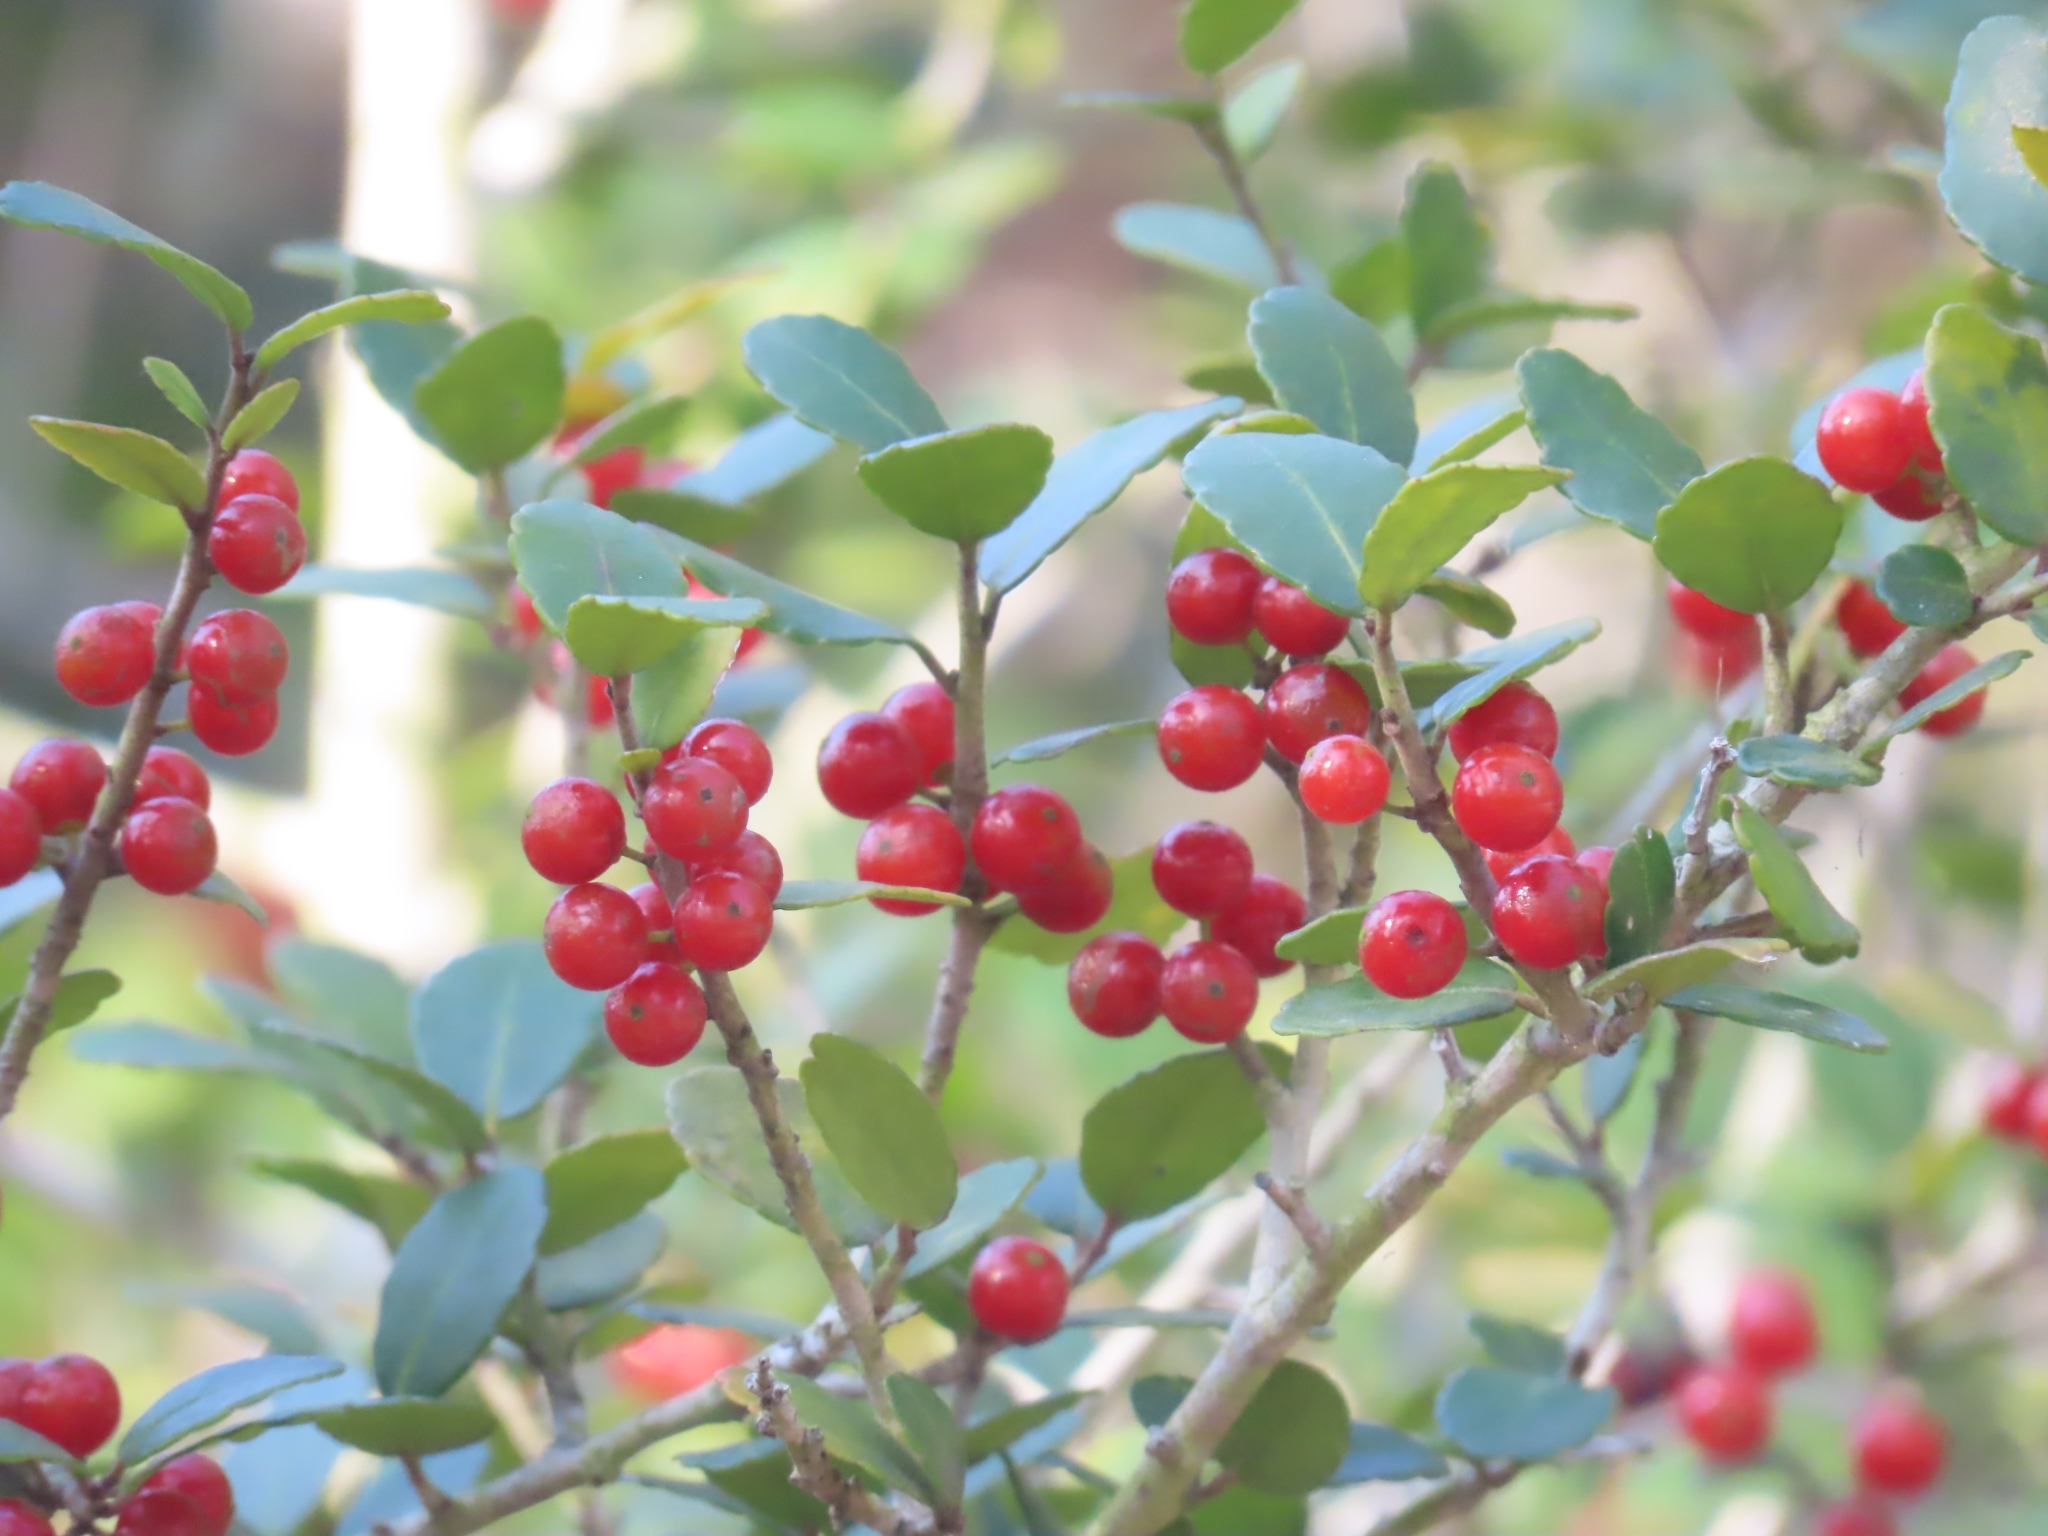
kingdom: Plantae
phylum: Tracheophyta
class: Magnoliopsida
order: Aquifoliales
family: Aquifoliaceae
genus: Ilex
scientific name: Ilex vomitoria
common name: Yaupon holly
